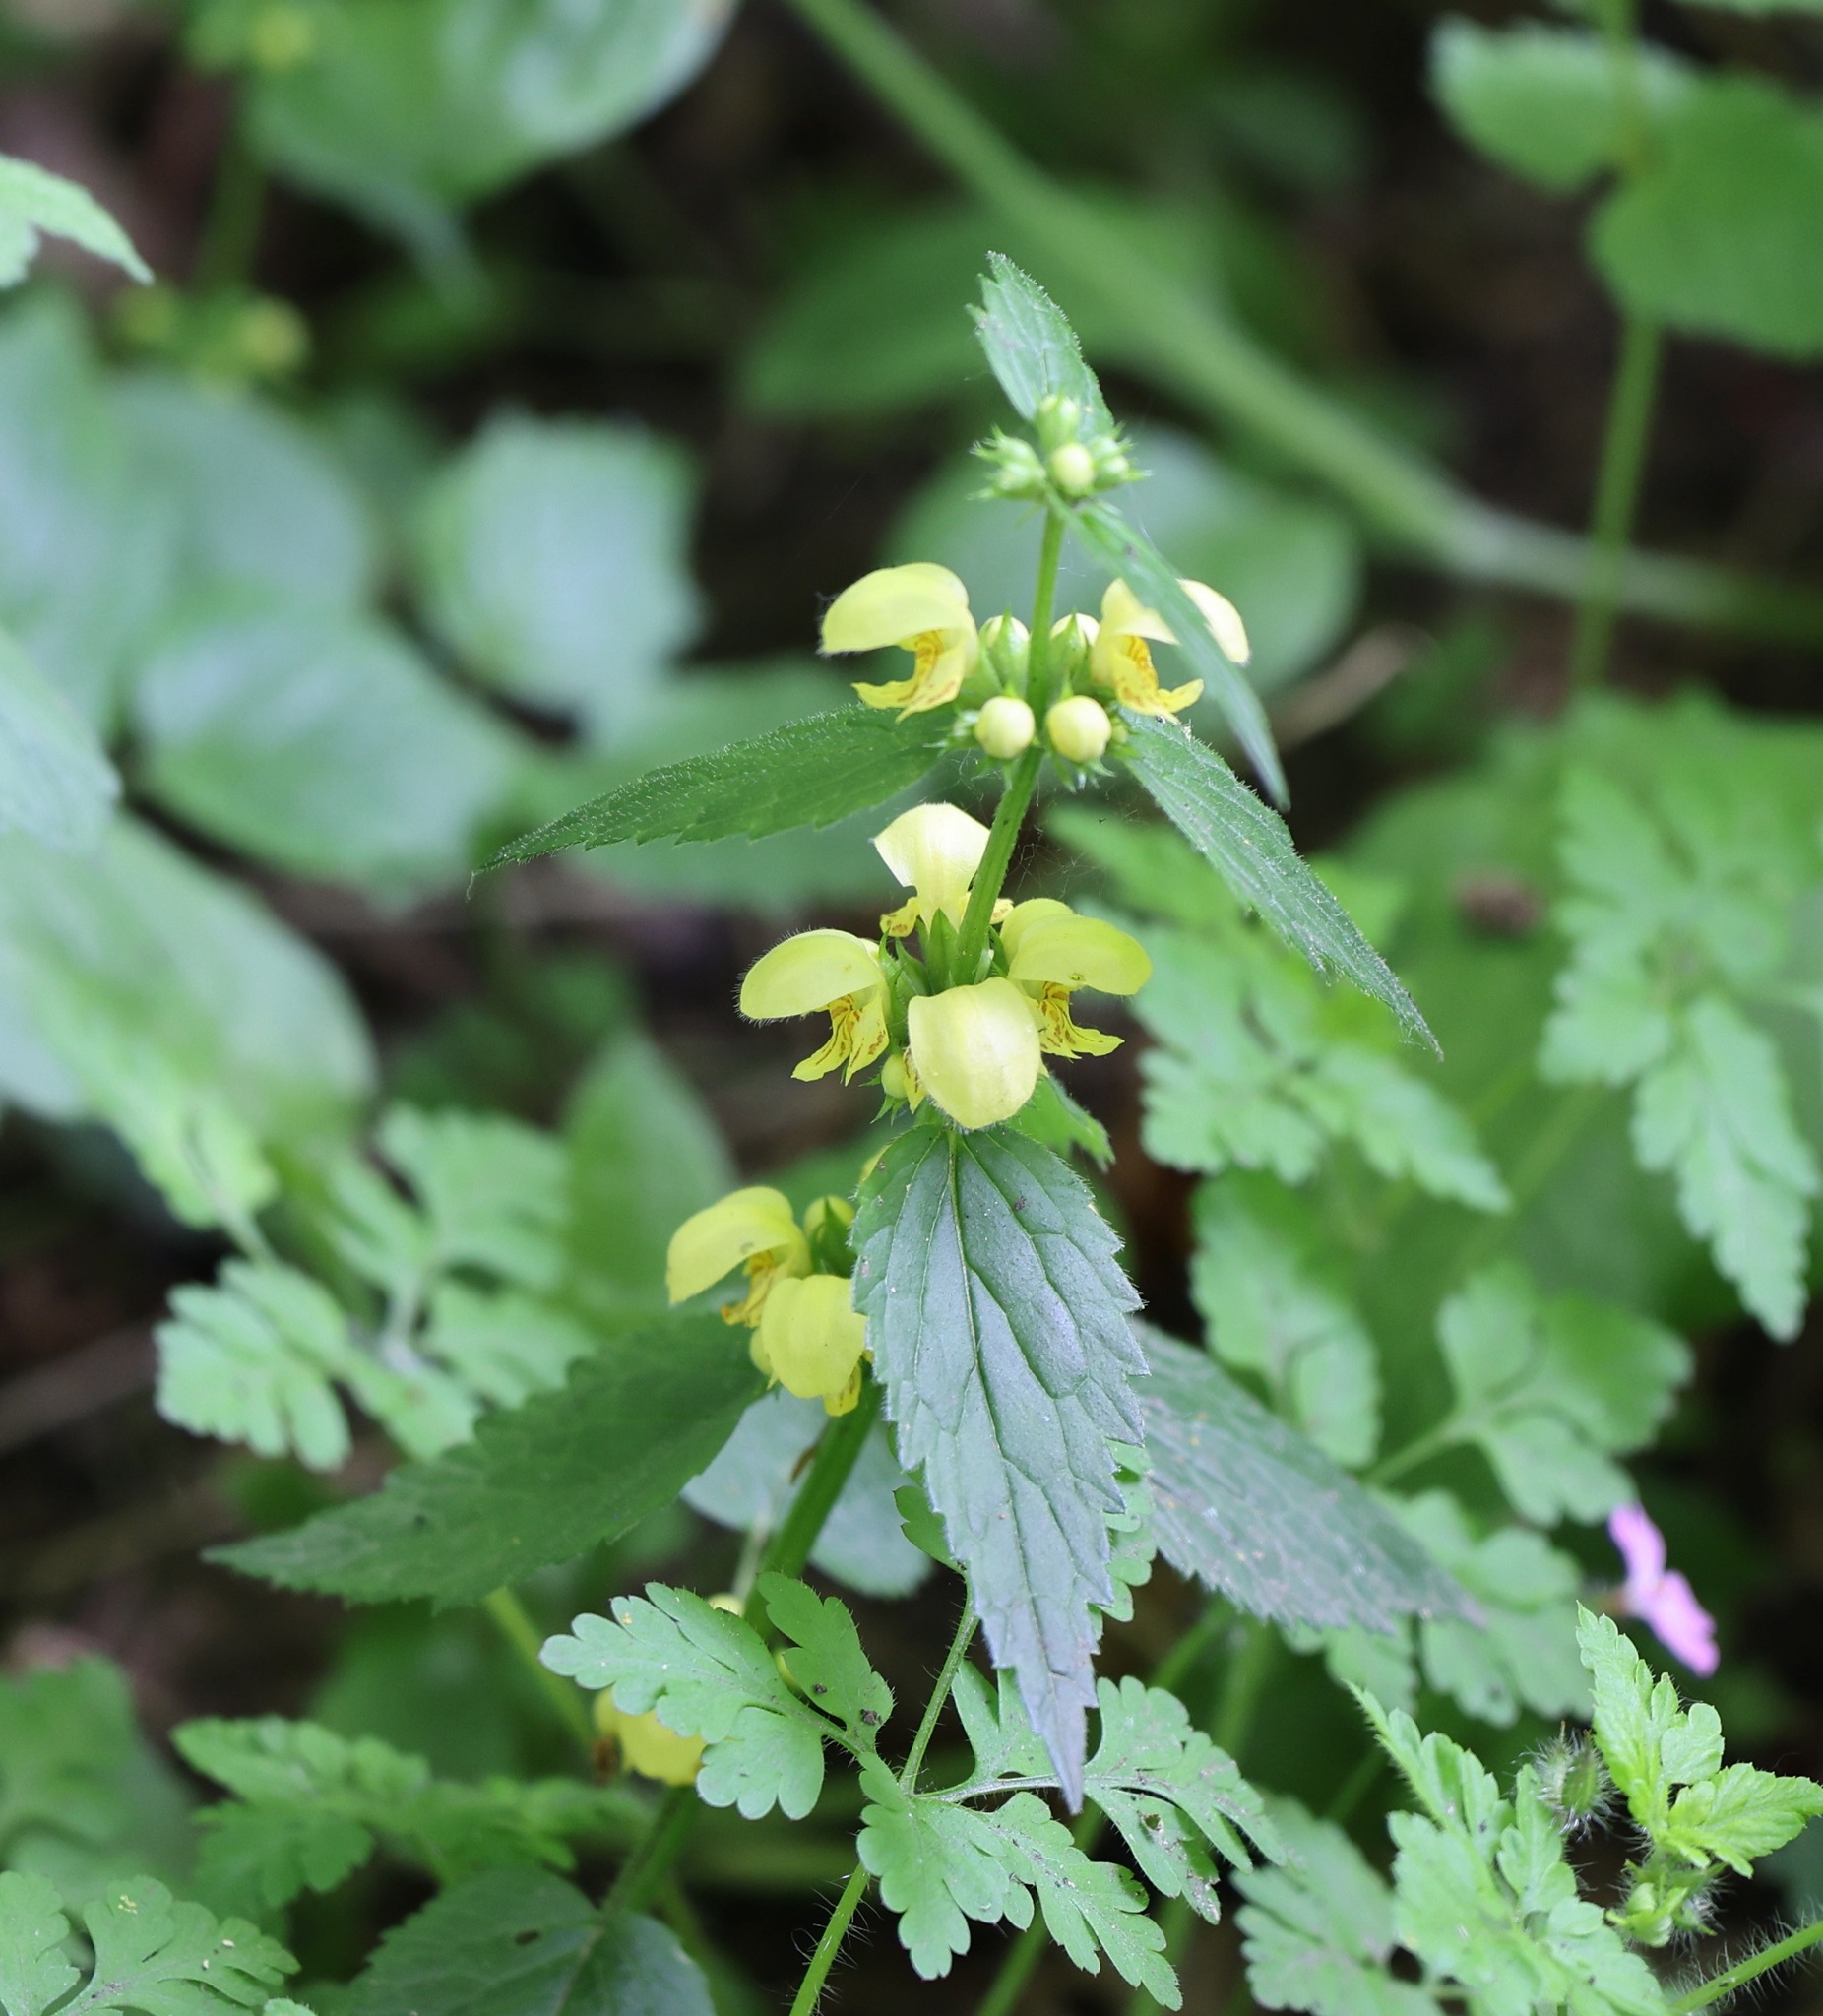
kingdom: Plantae
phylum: Tracheophyta
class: Magnoliopsida
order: Lamiales
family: Lamiaceae
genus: Lamium
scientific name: Lamium galeobdolon
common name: Yellow archangel
